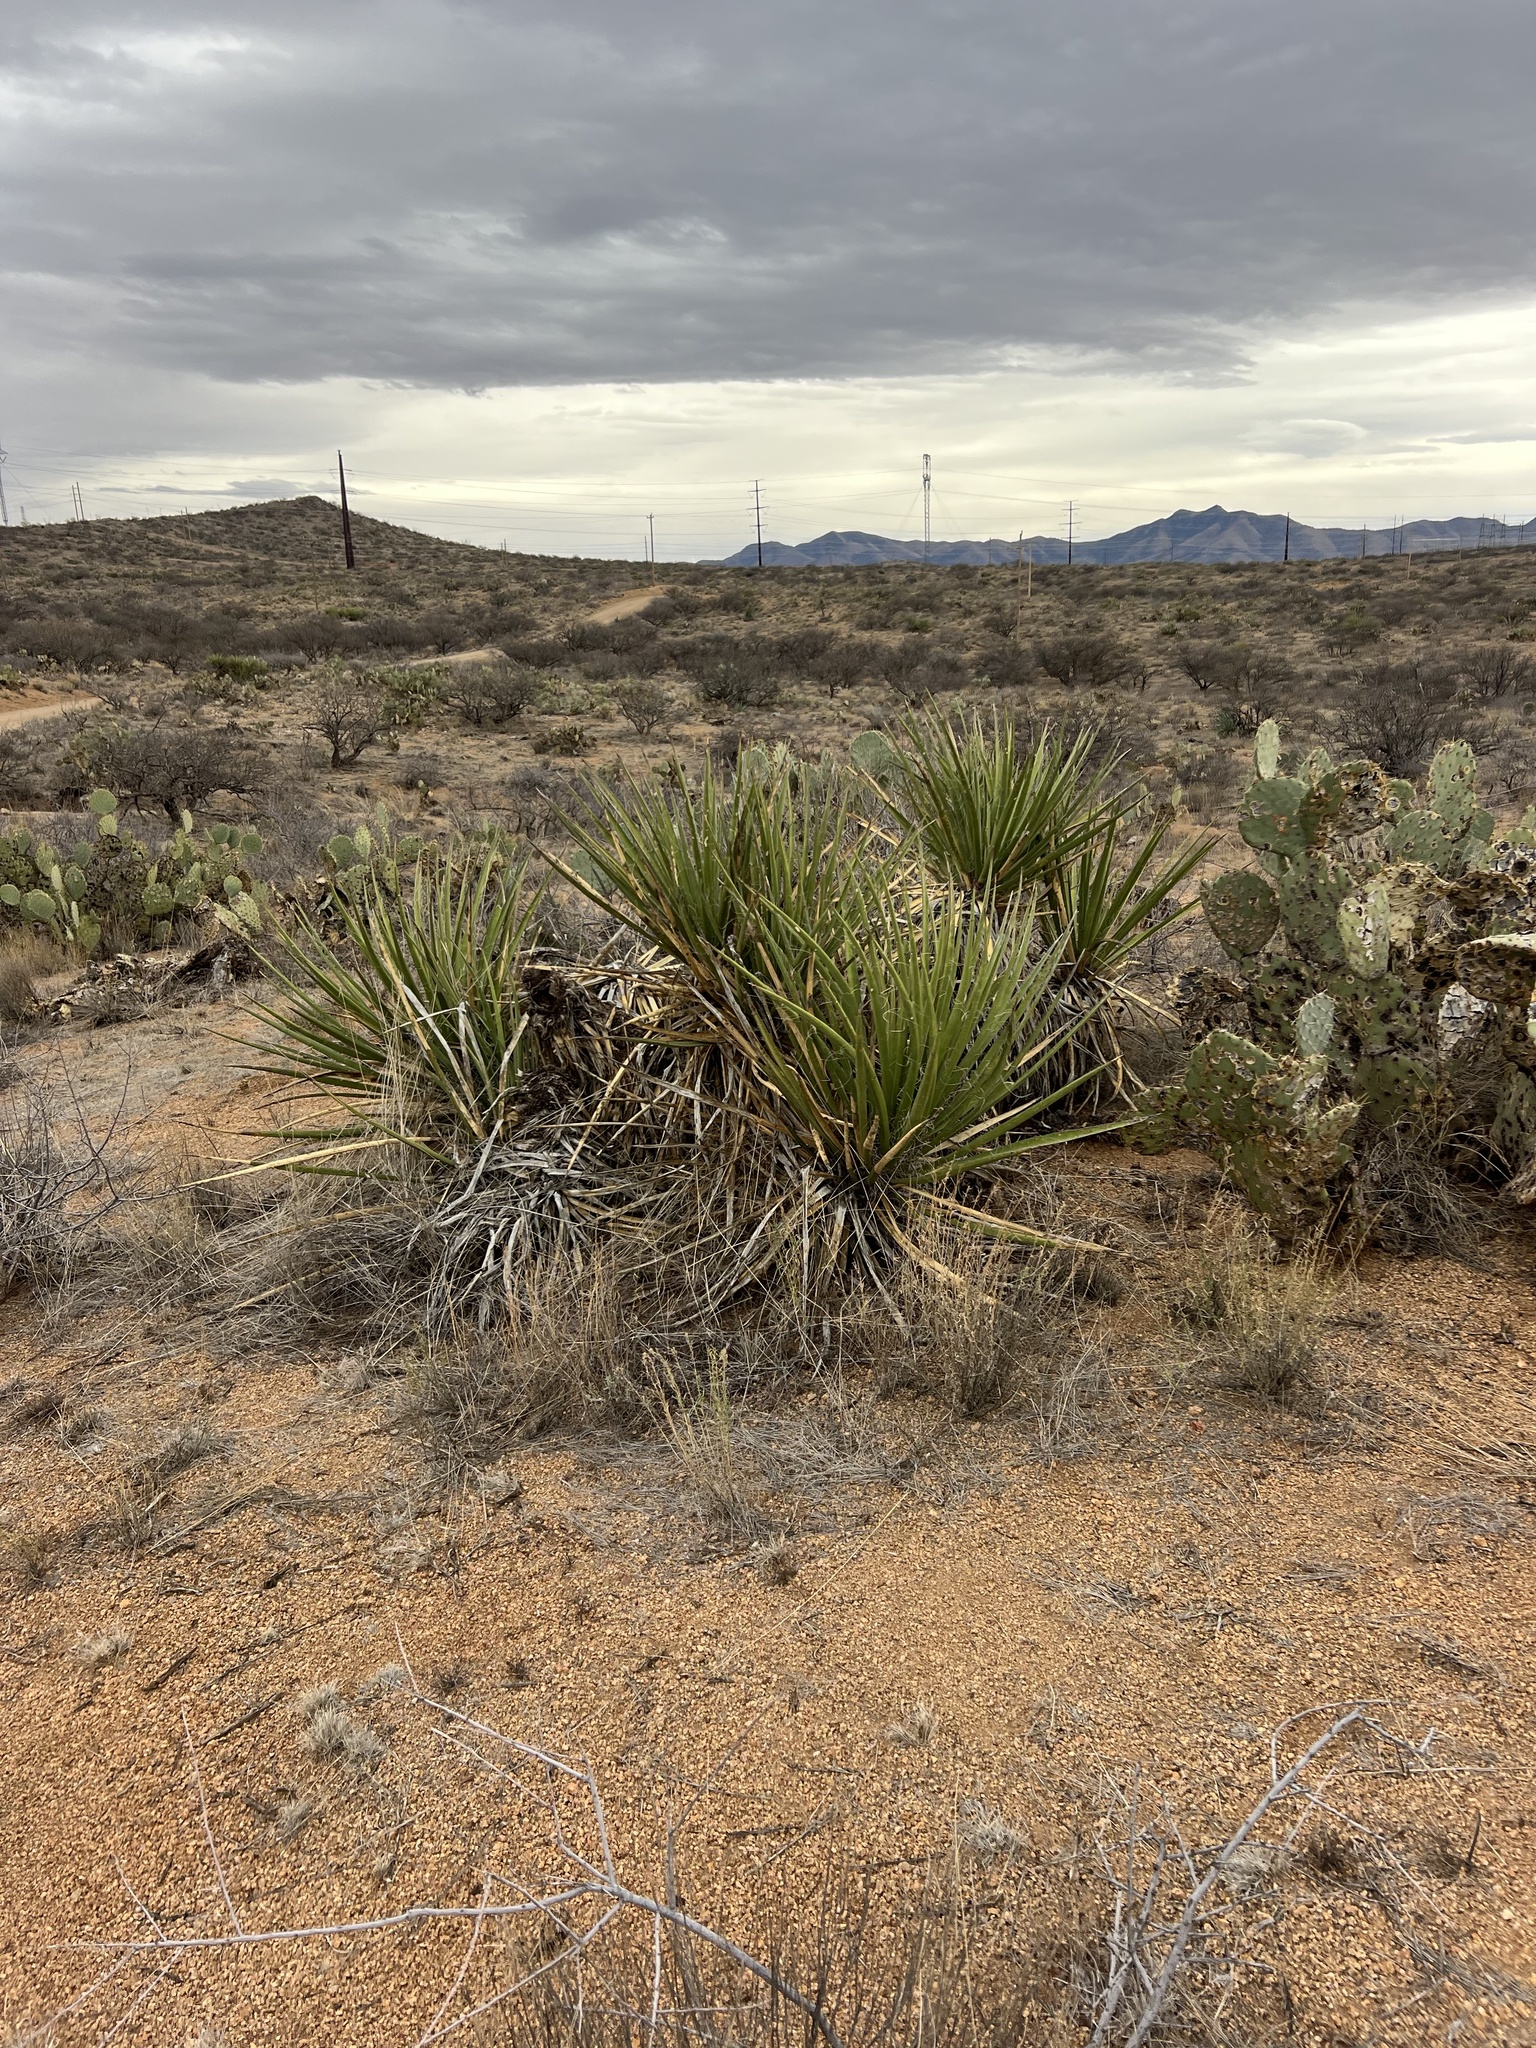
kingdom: Plantae
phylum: Tracheophyta
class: Liliopsida
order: Asparagales
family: Asparagaceae
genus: Yucca
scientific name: Yucca baccata
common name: Banana yucca
